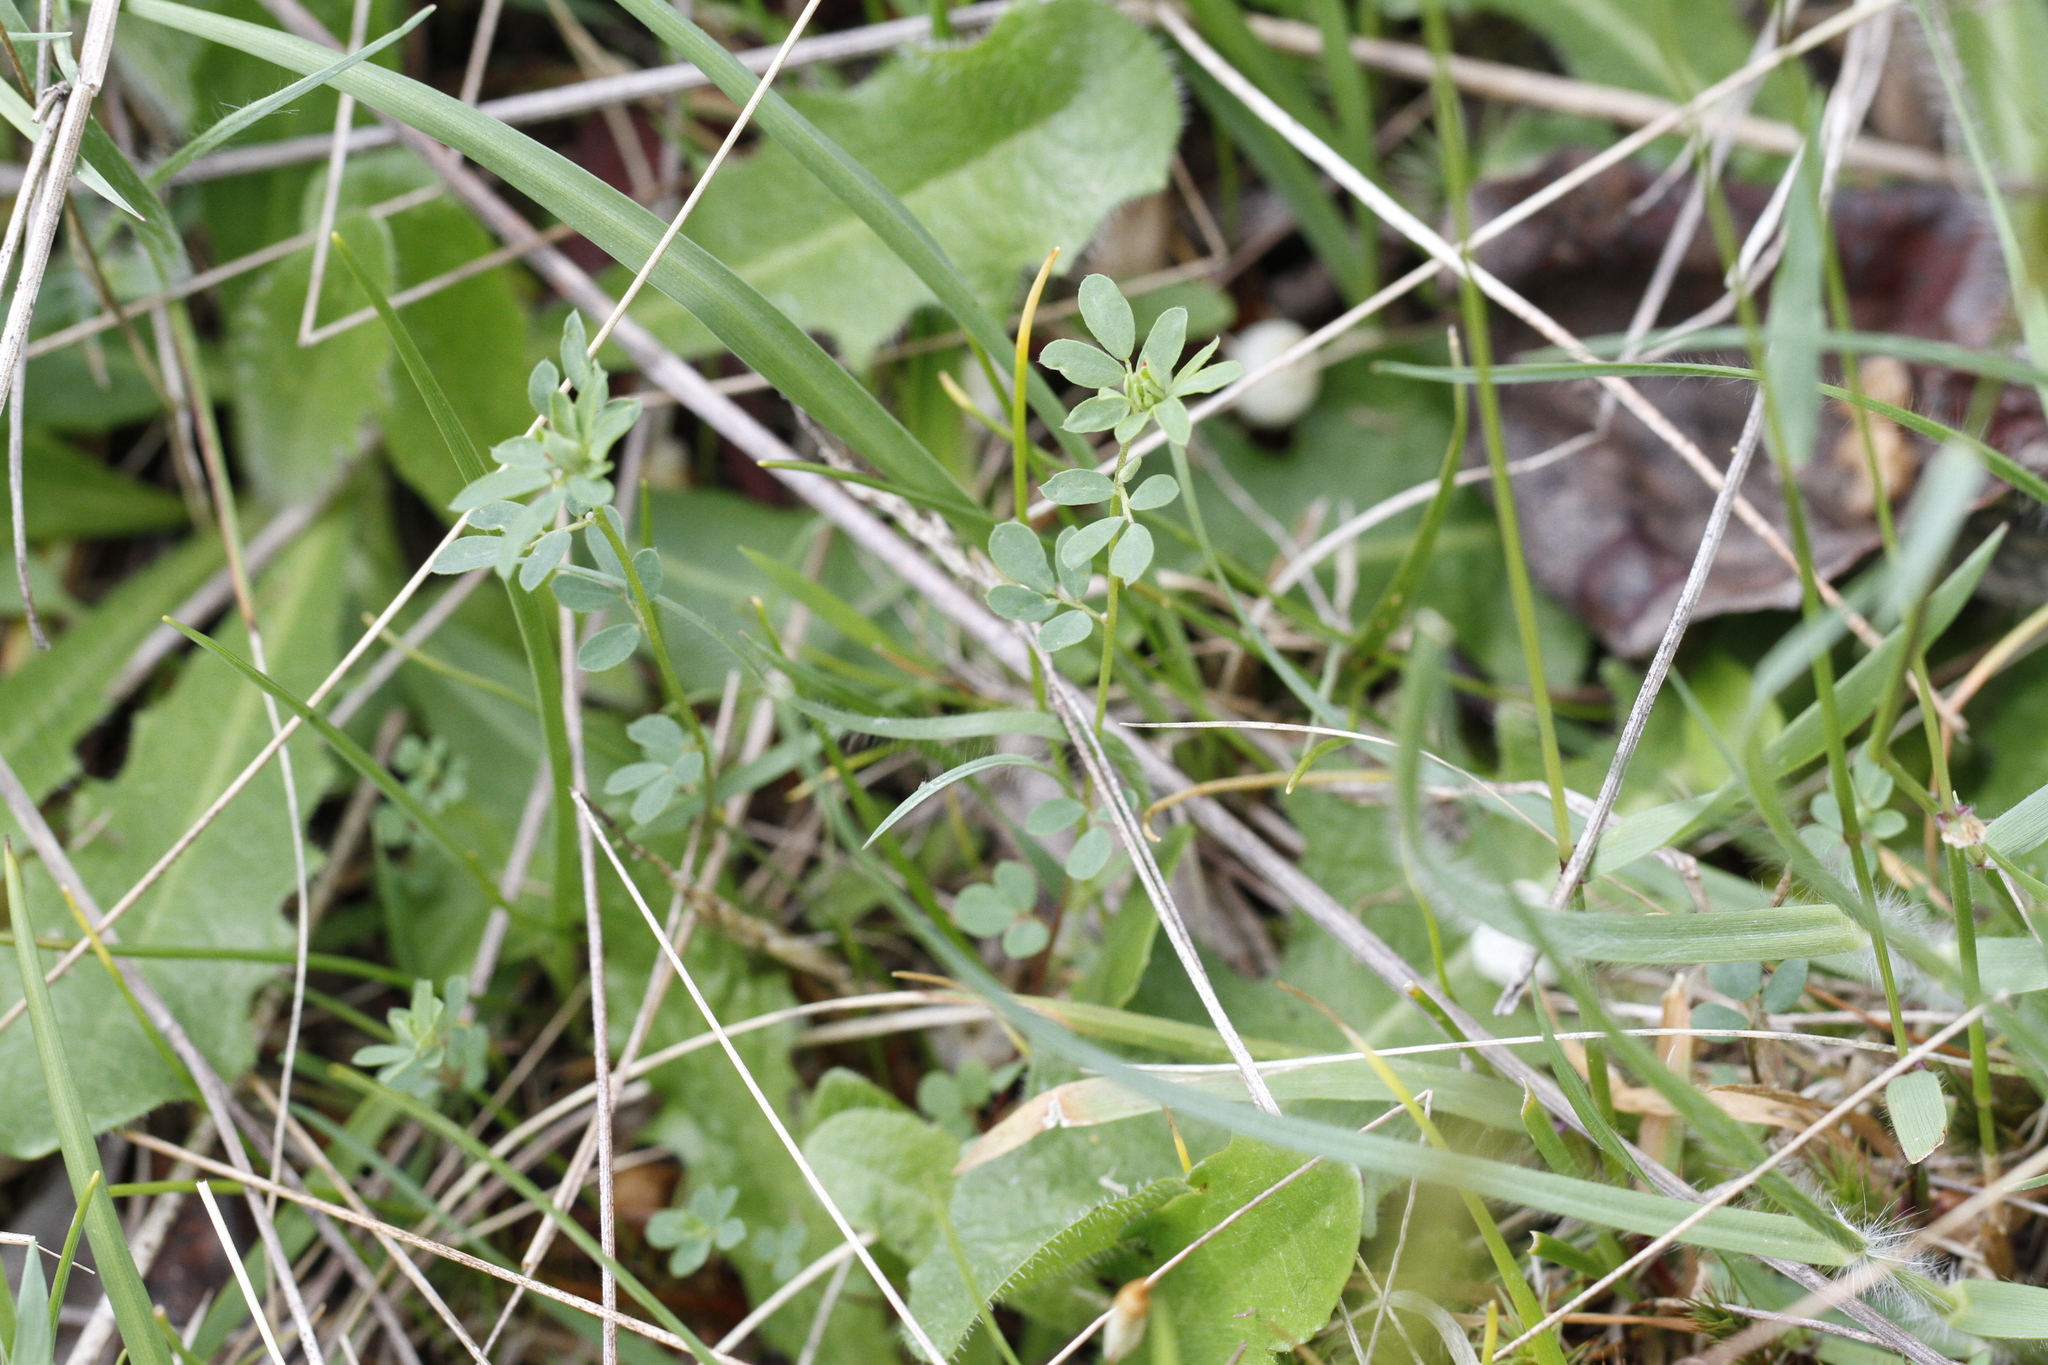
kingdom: Plantae
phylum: Tracheophyta
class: Magnoliopsida
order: Fabales
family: Fabaceae
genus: Acmispon
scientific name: Acmispon parviflorus
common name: Desert deer-vetch
